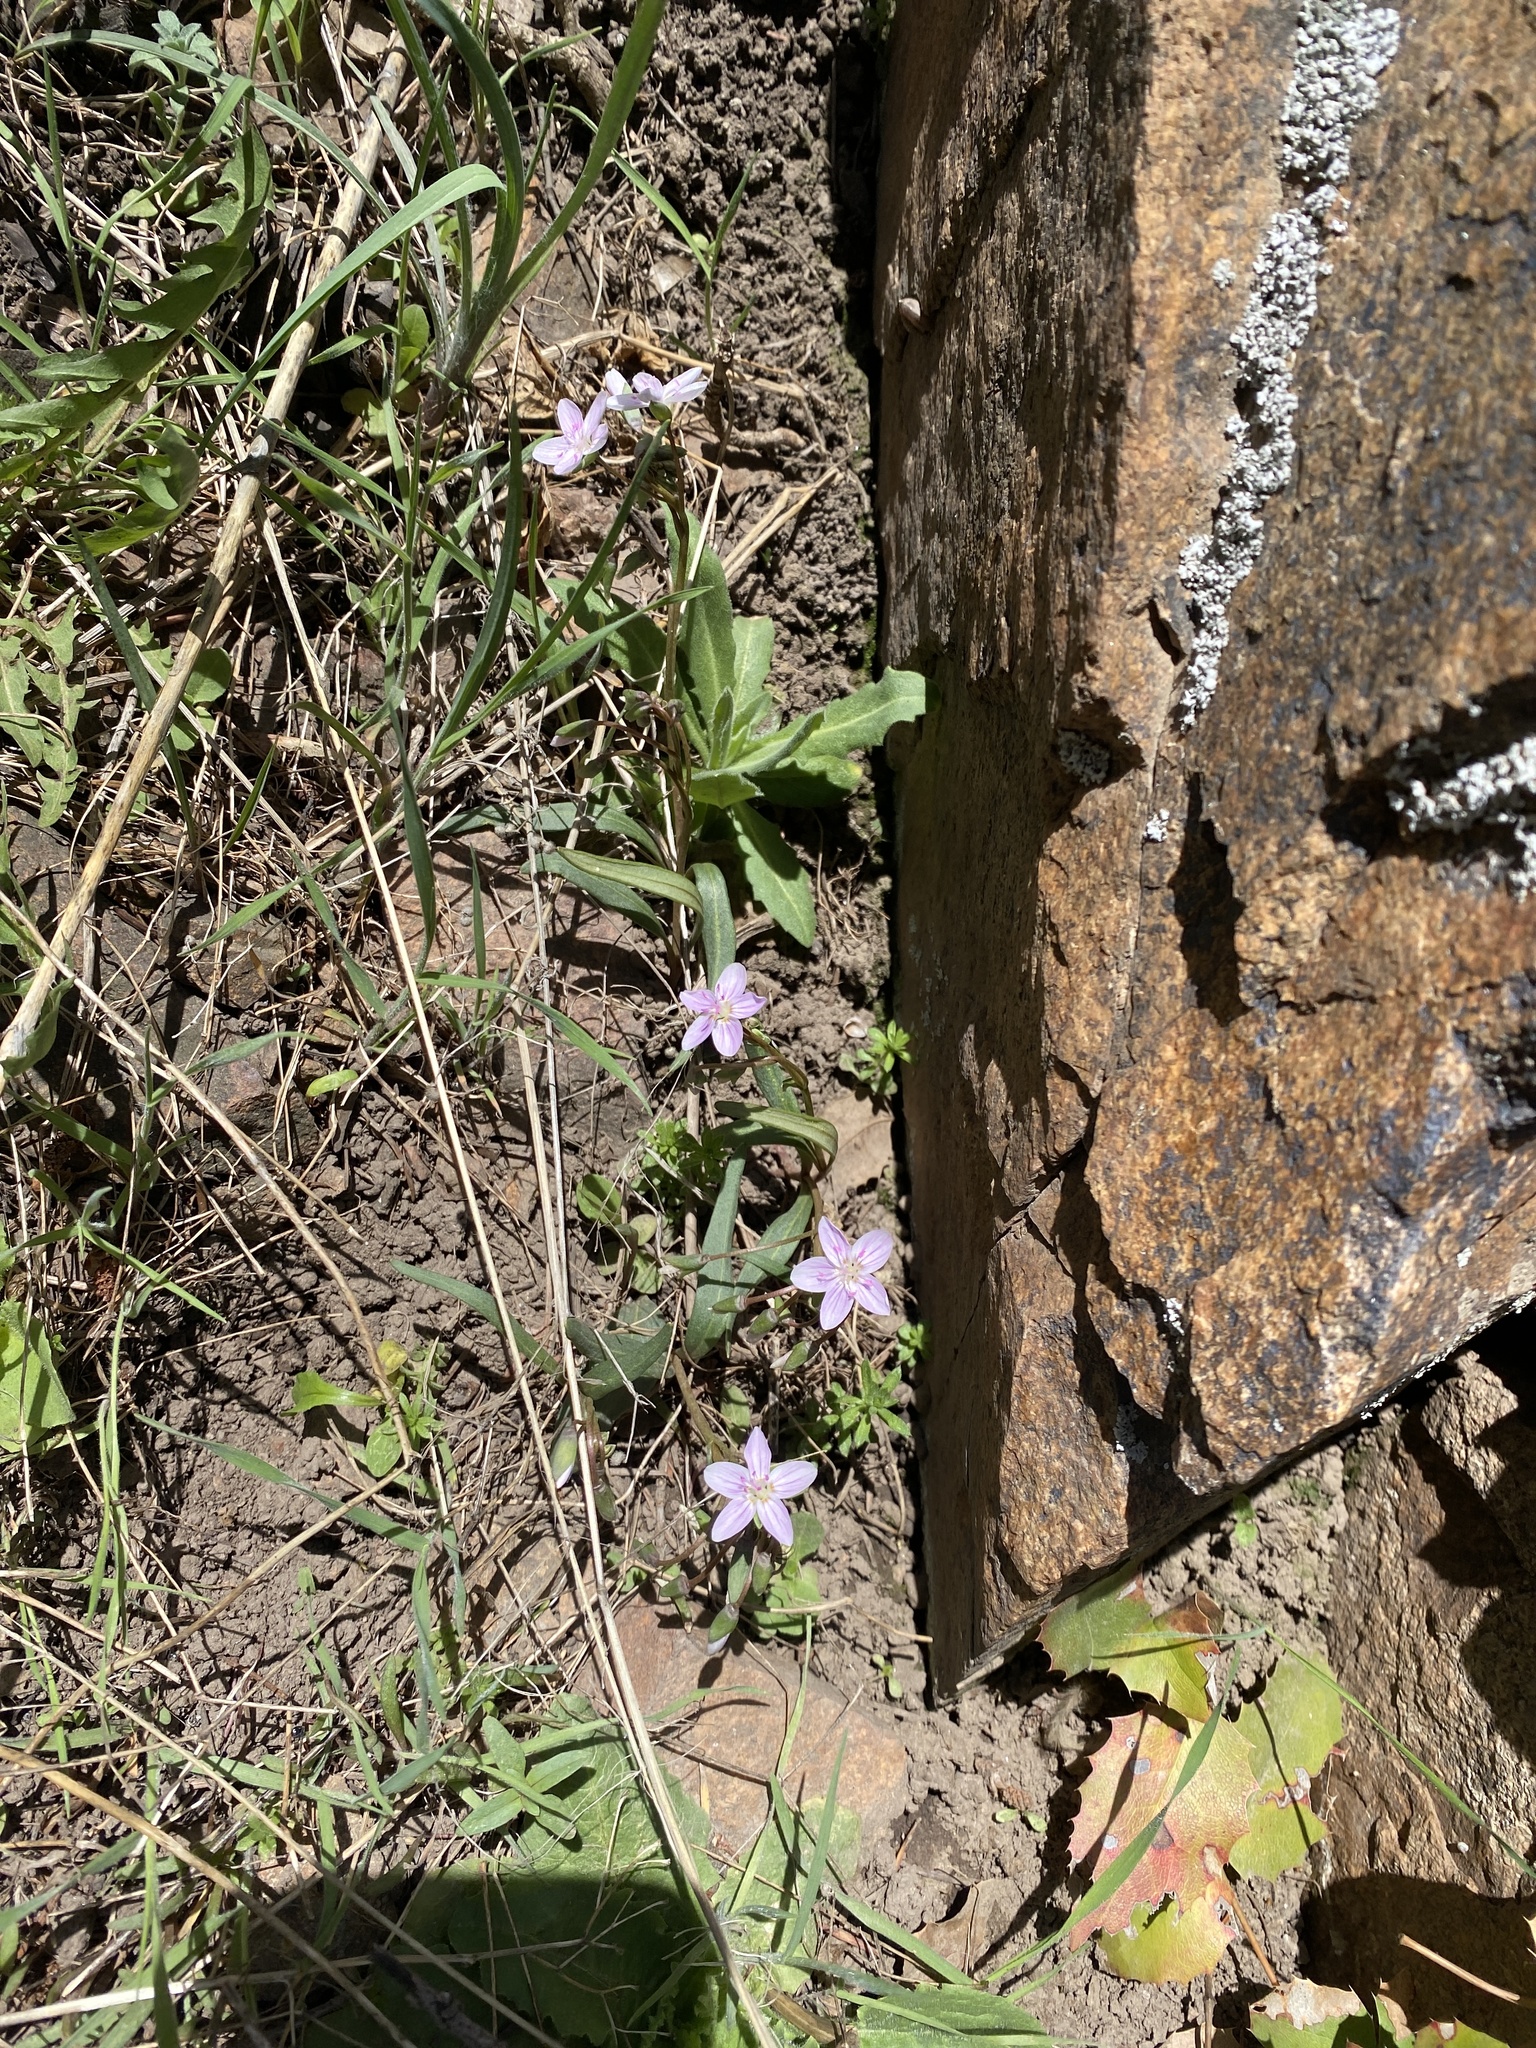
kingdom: Plantae
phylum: Tracheophyta
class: Magnoliopsida
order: Caryophyllales
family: Montiaceae
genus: Claytonia
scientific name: Claytonia rosea
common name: Rocky mountain spring-beauty
